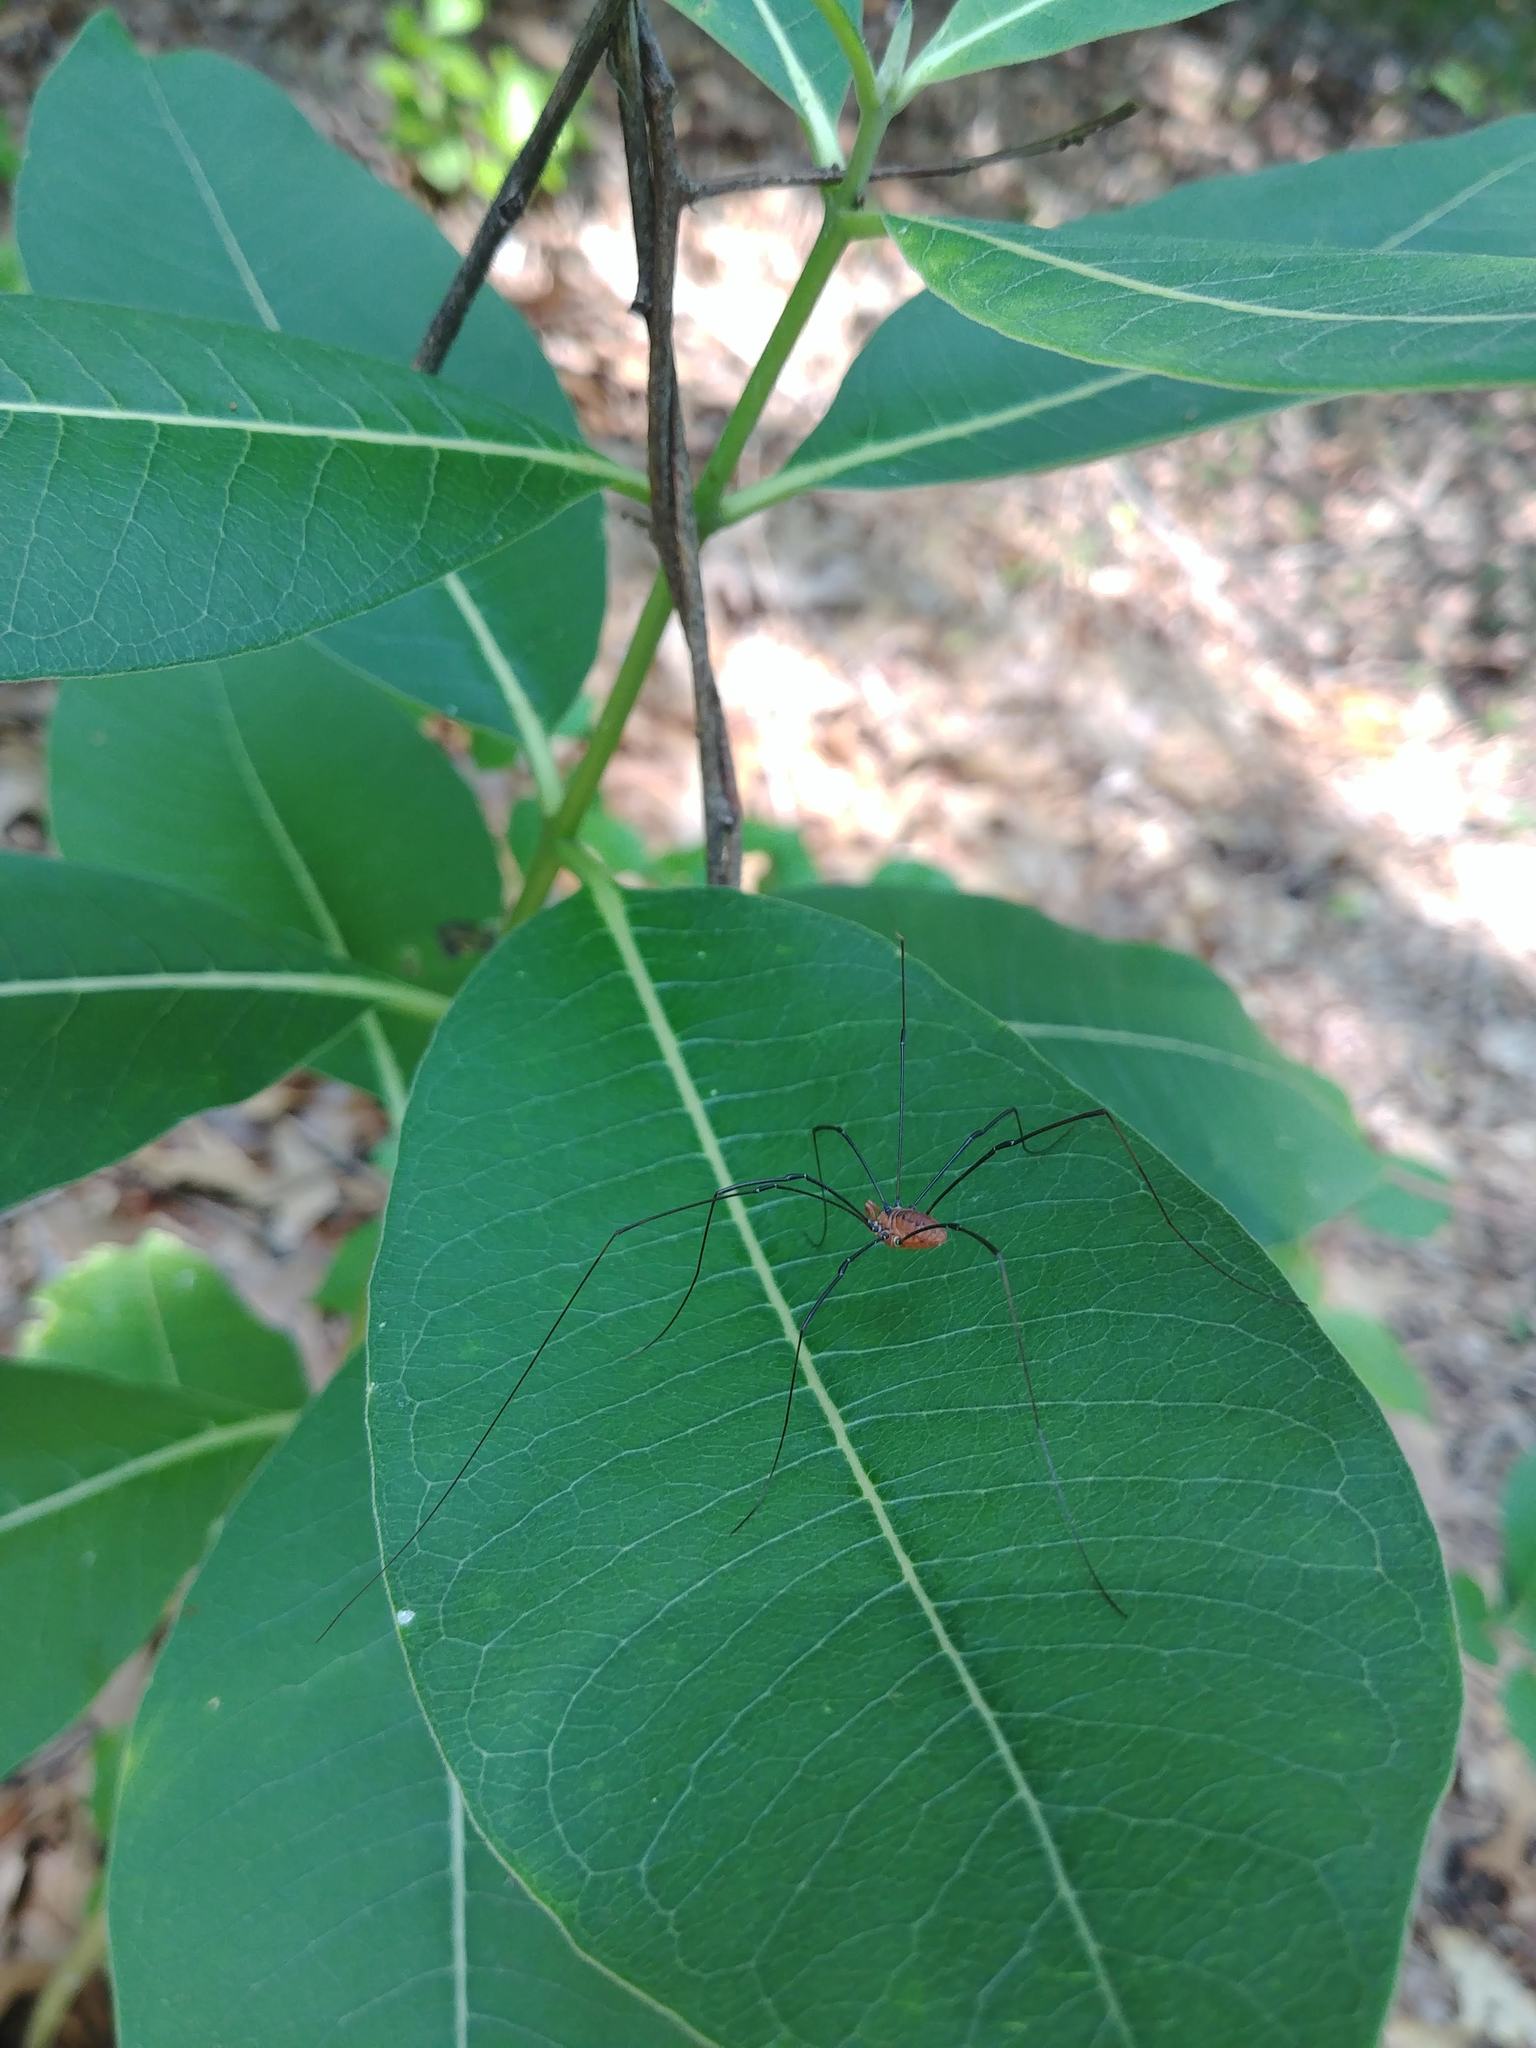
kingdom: Animalia
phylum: Arthropoda
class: Arachnida
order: Opiliones
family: Sclerosomatidae
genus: Leiobunum
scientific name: Leiobunum vittatum
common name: Eastern harvestman
